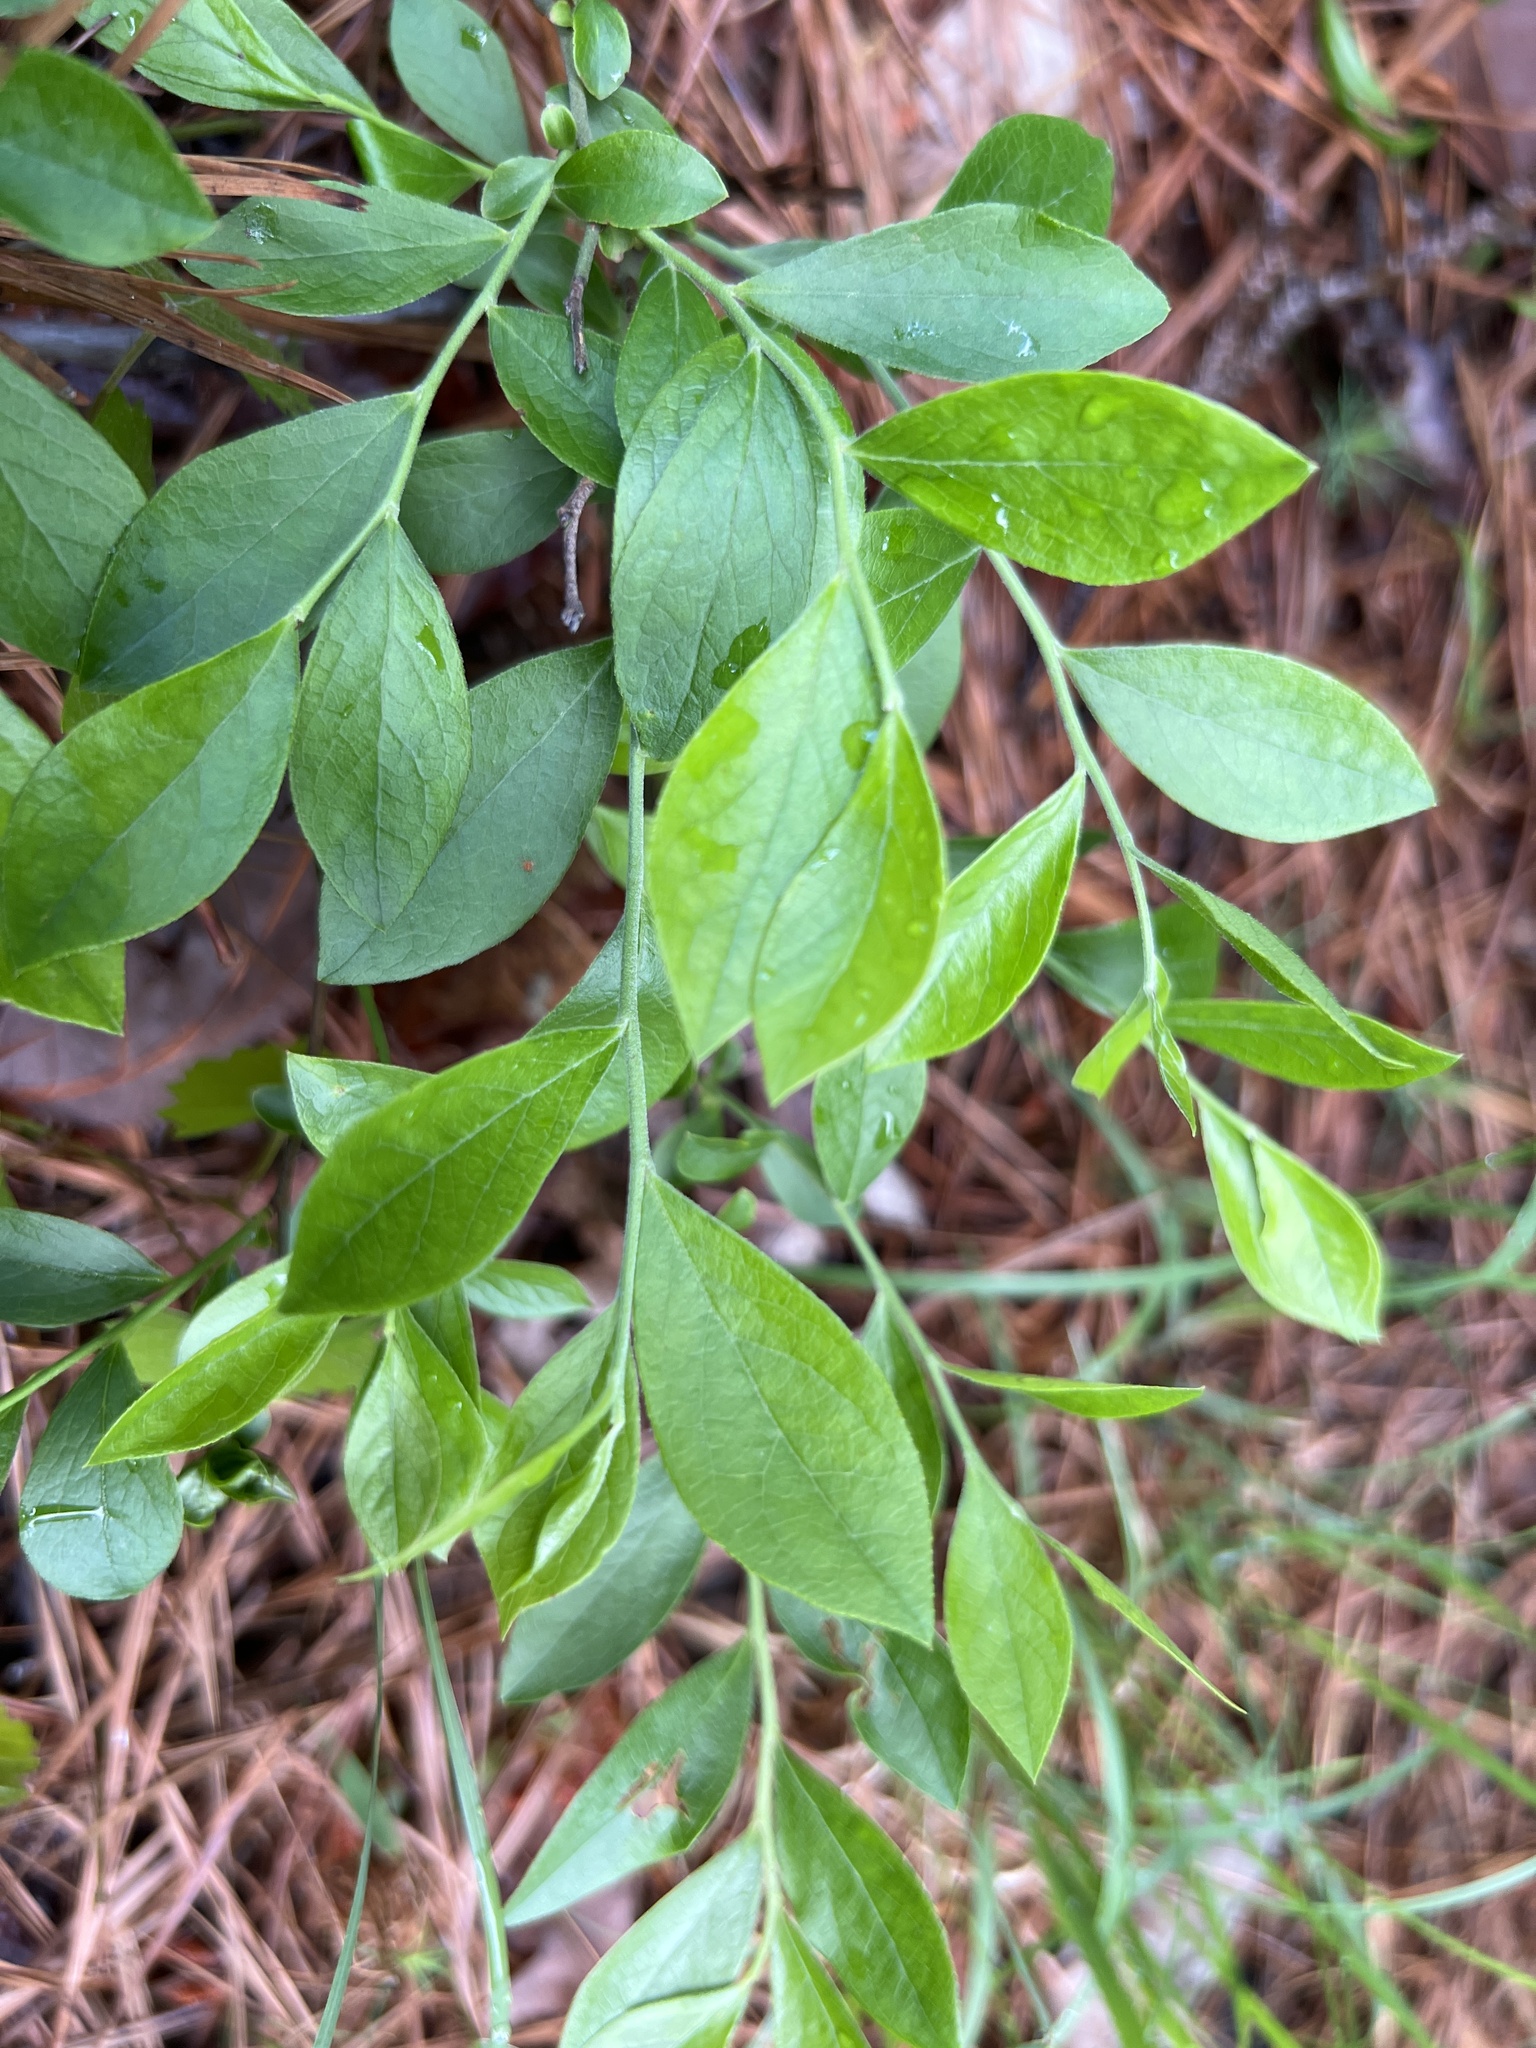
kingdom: Plantae
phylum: Tracheophyta
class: Magnoliopsida
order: Ericales
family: Ericaceae
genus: Vaccinium
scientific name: Vaccinium tenellum
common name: Southern blueberry
